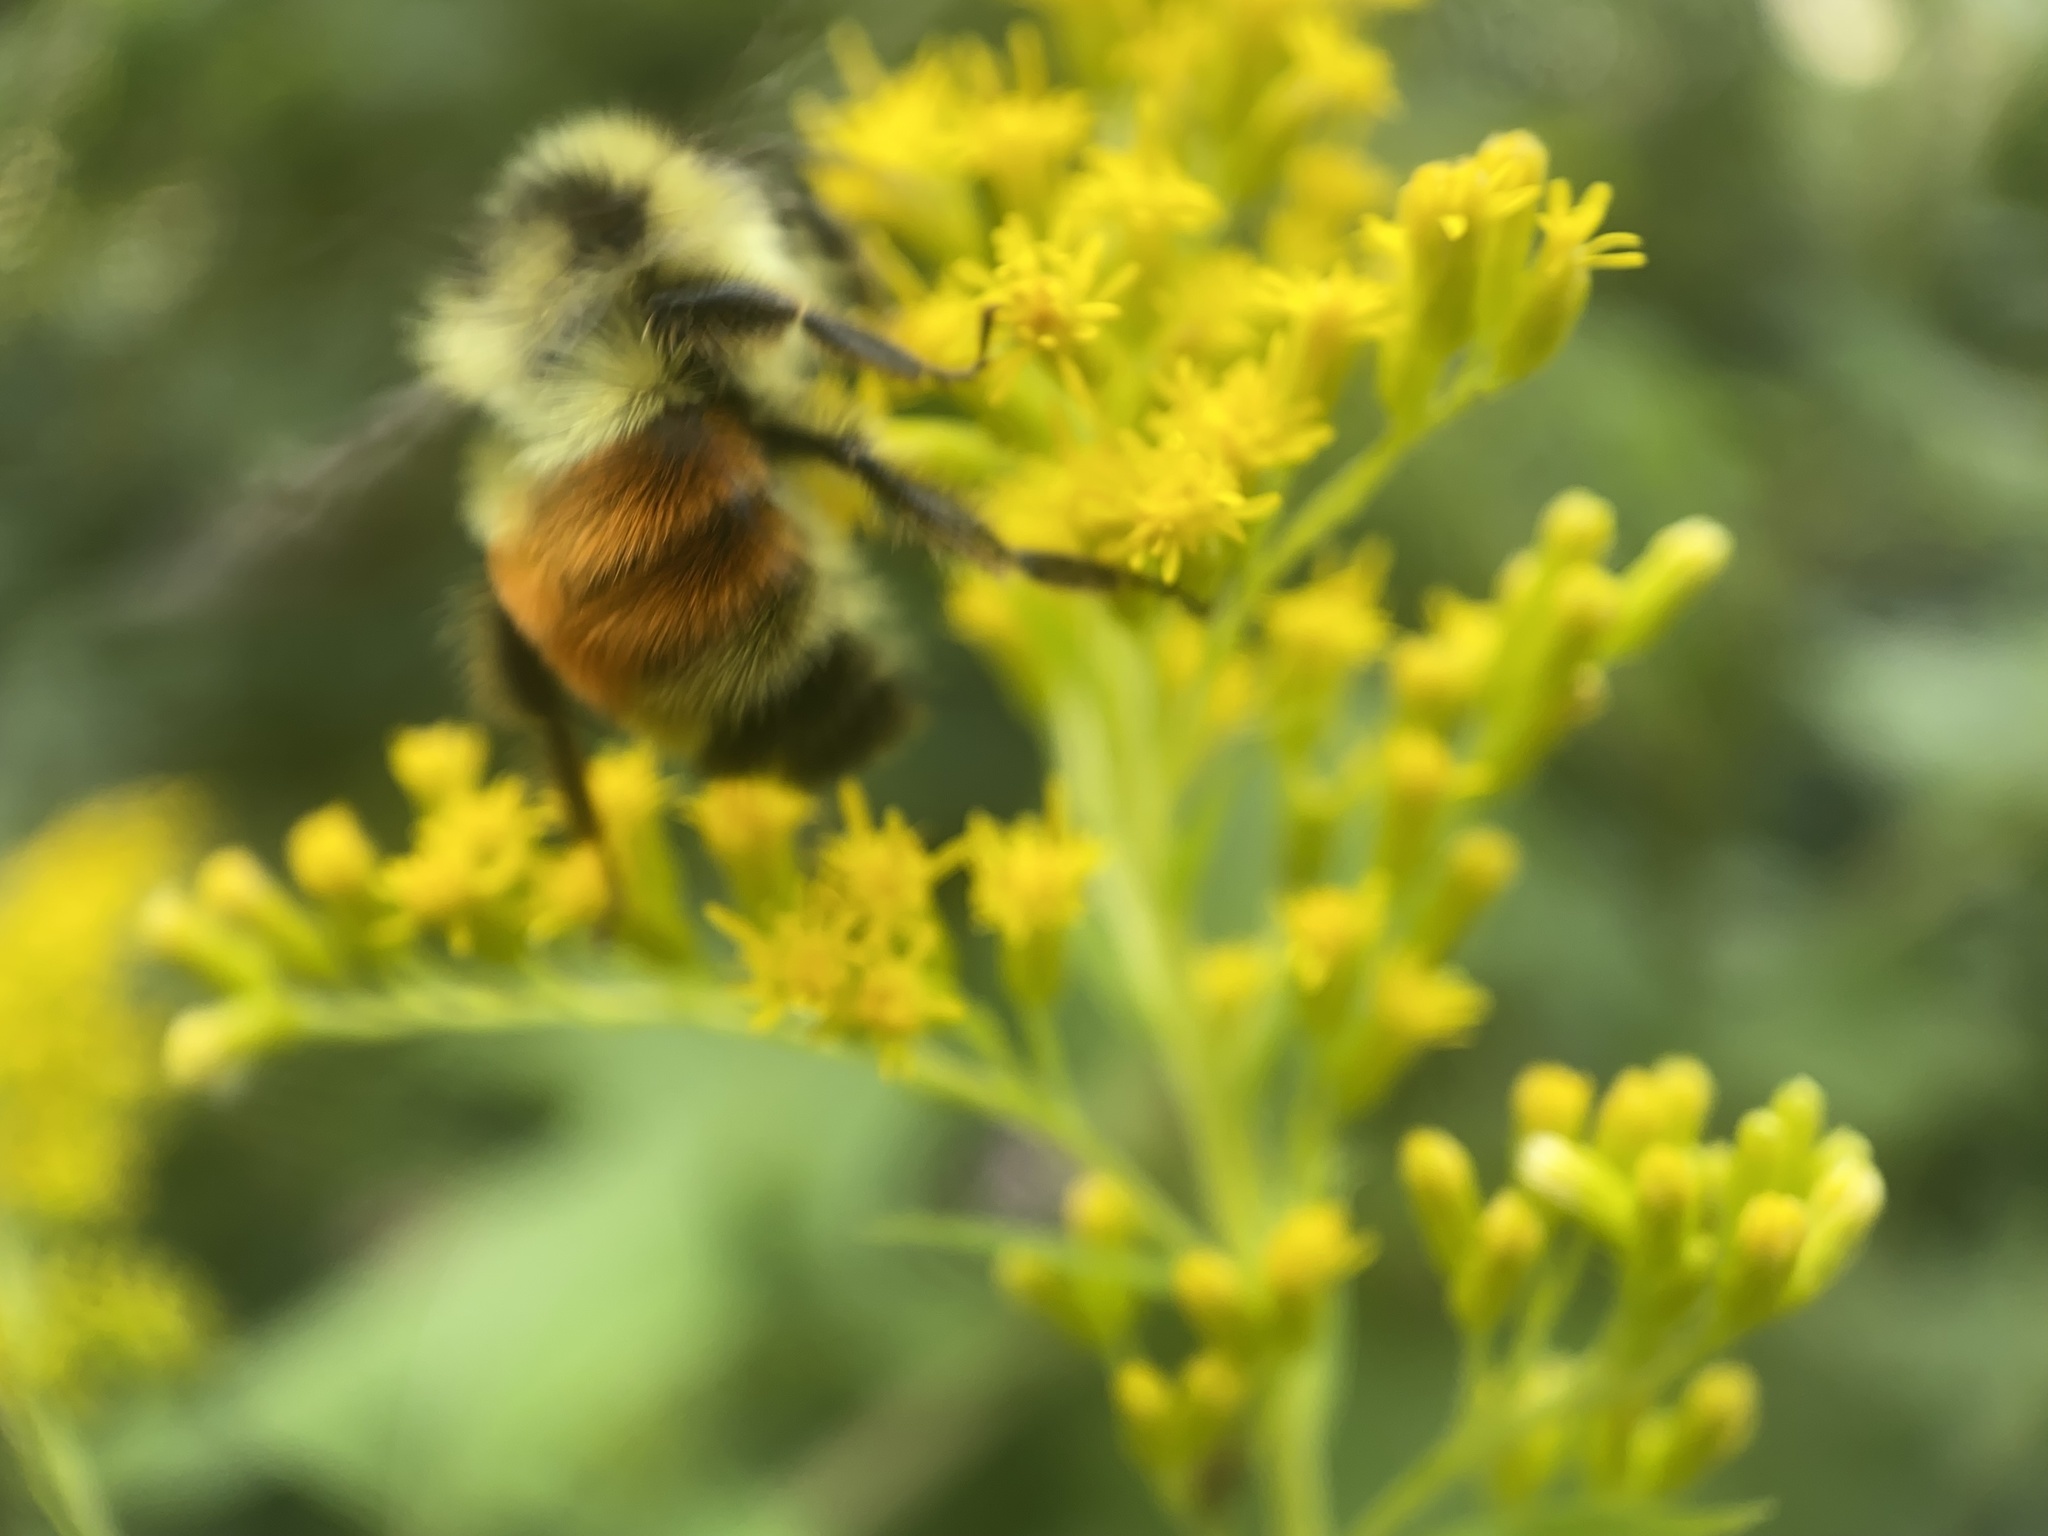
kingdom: Animalia
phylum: Arthropoda
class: Insecta
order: Hymenoptera
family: Apidae
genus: Bombus
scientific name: Bombus ternarius
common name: Tri-colored bumble bee
